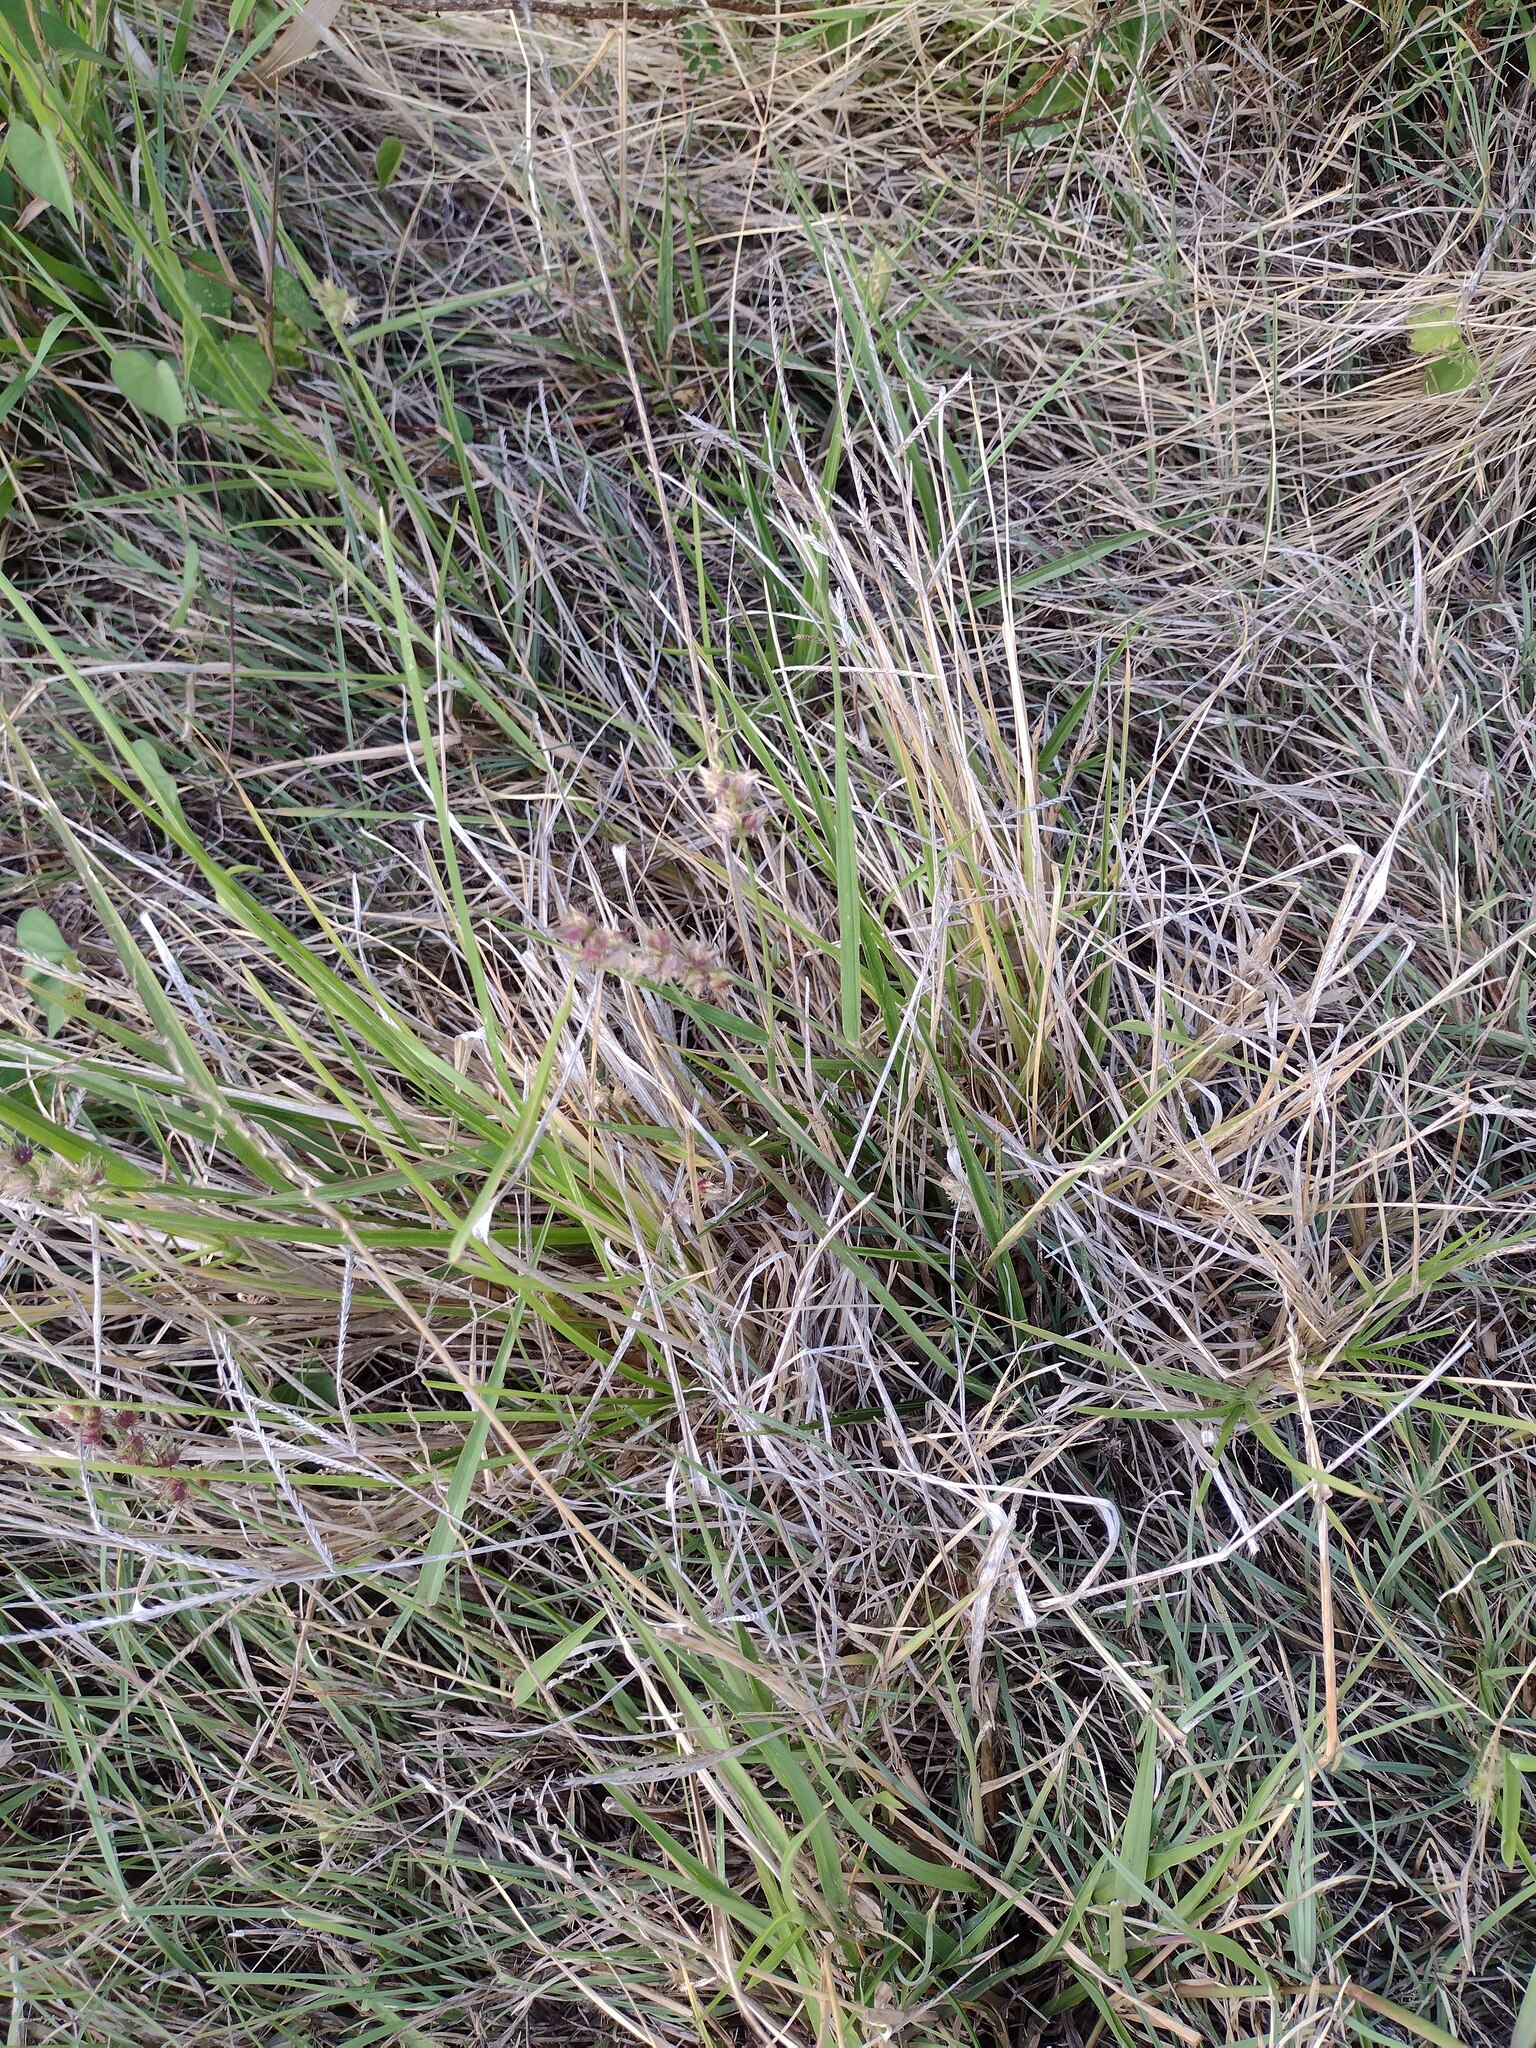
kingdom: Plantae
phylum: Tracheophyta
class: Liliopsida
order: Poales
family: Poaceae
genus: Cenchrus
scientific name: Cenchrus echinatus
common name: Southern sandbur
